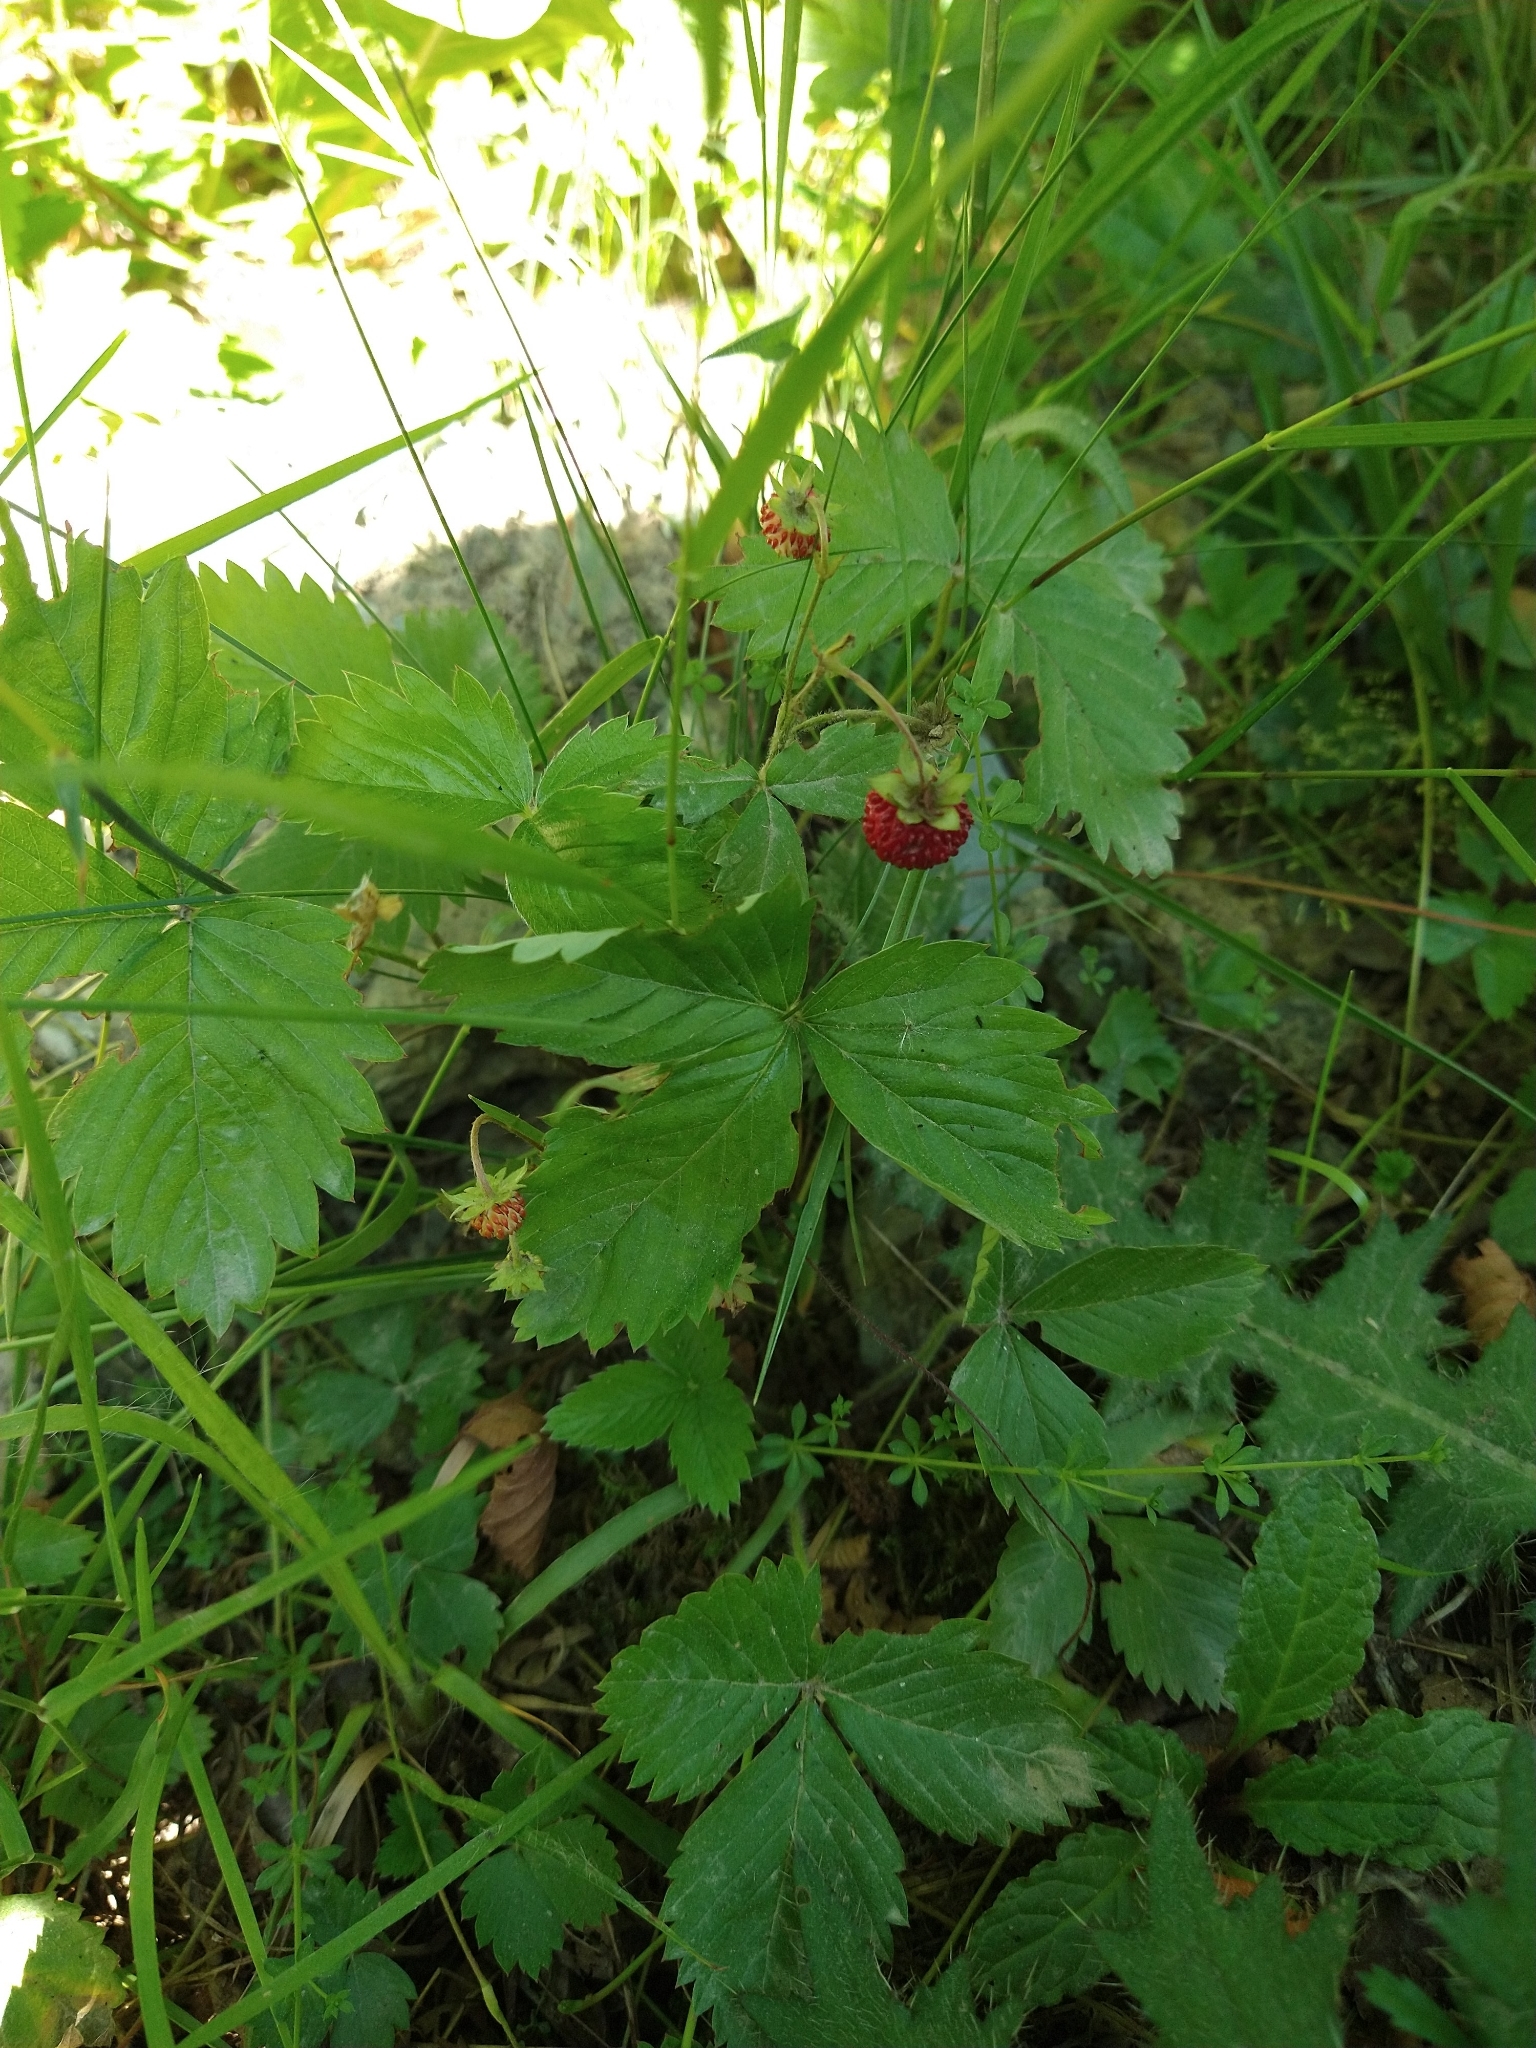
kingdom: Plantae
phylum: Tracheophyta
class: Magnoliopsida
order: Rosales
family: Rosaceae
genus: Fragaria
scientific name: Fragaria vesca
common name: Wild strawberry
